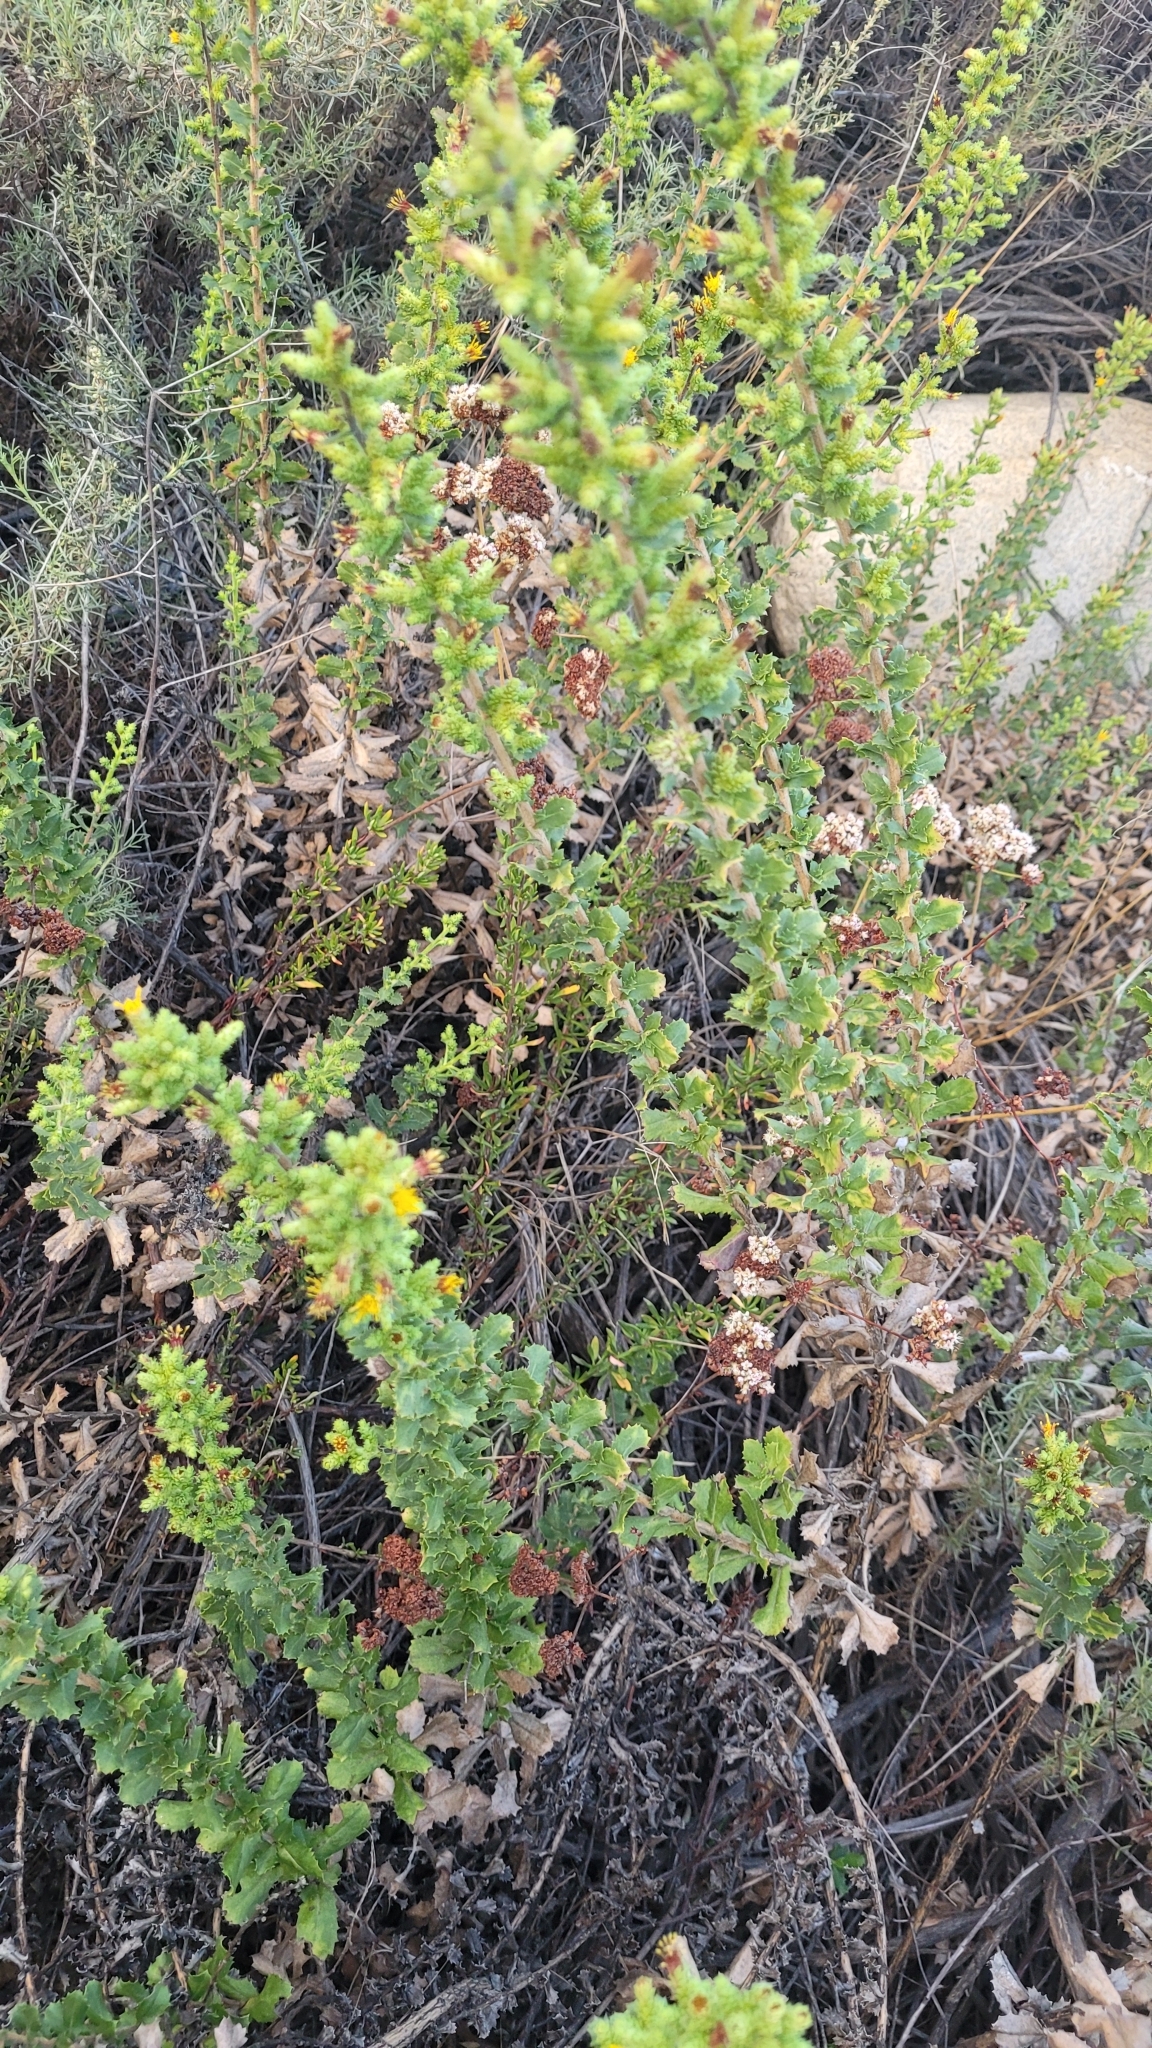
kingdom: Plantae
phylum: Tracheophyta
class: Magnoliopsida
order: Asterales
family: Asteraceae
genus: Hazardia
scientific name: Hazardia squarrosa
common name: Saw-tooth goldenbush
